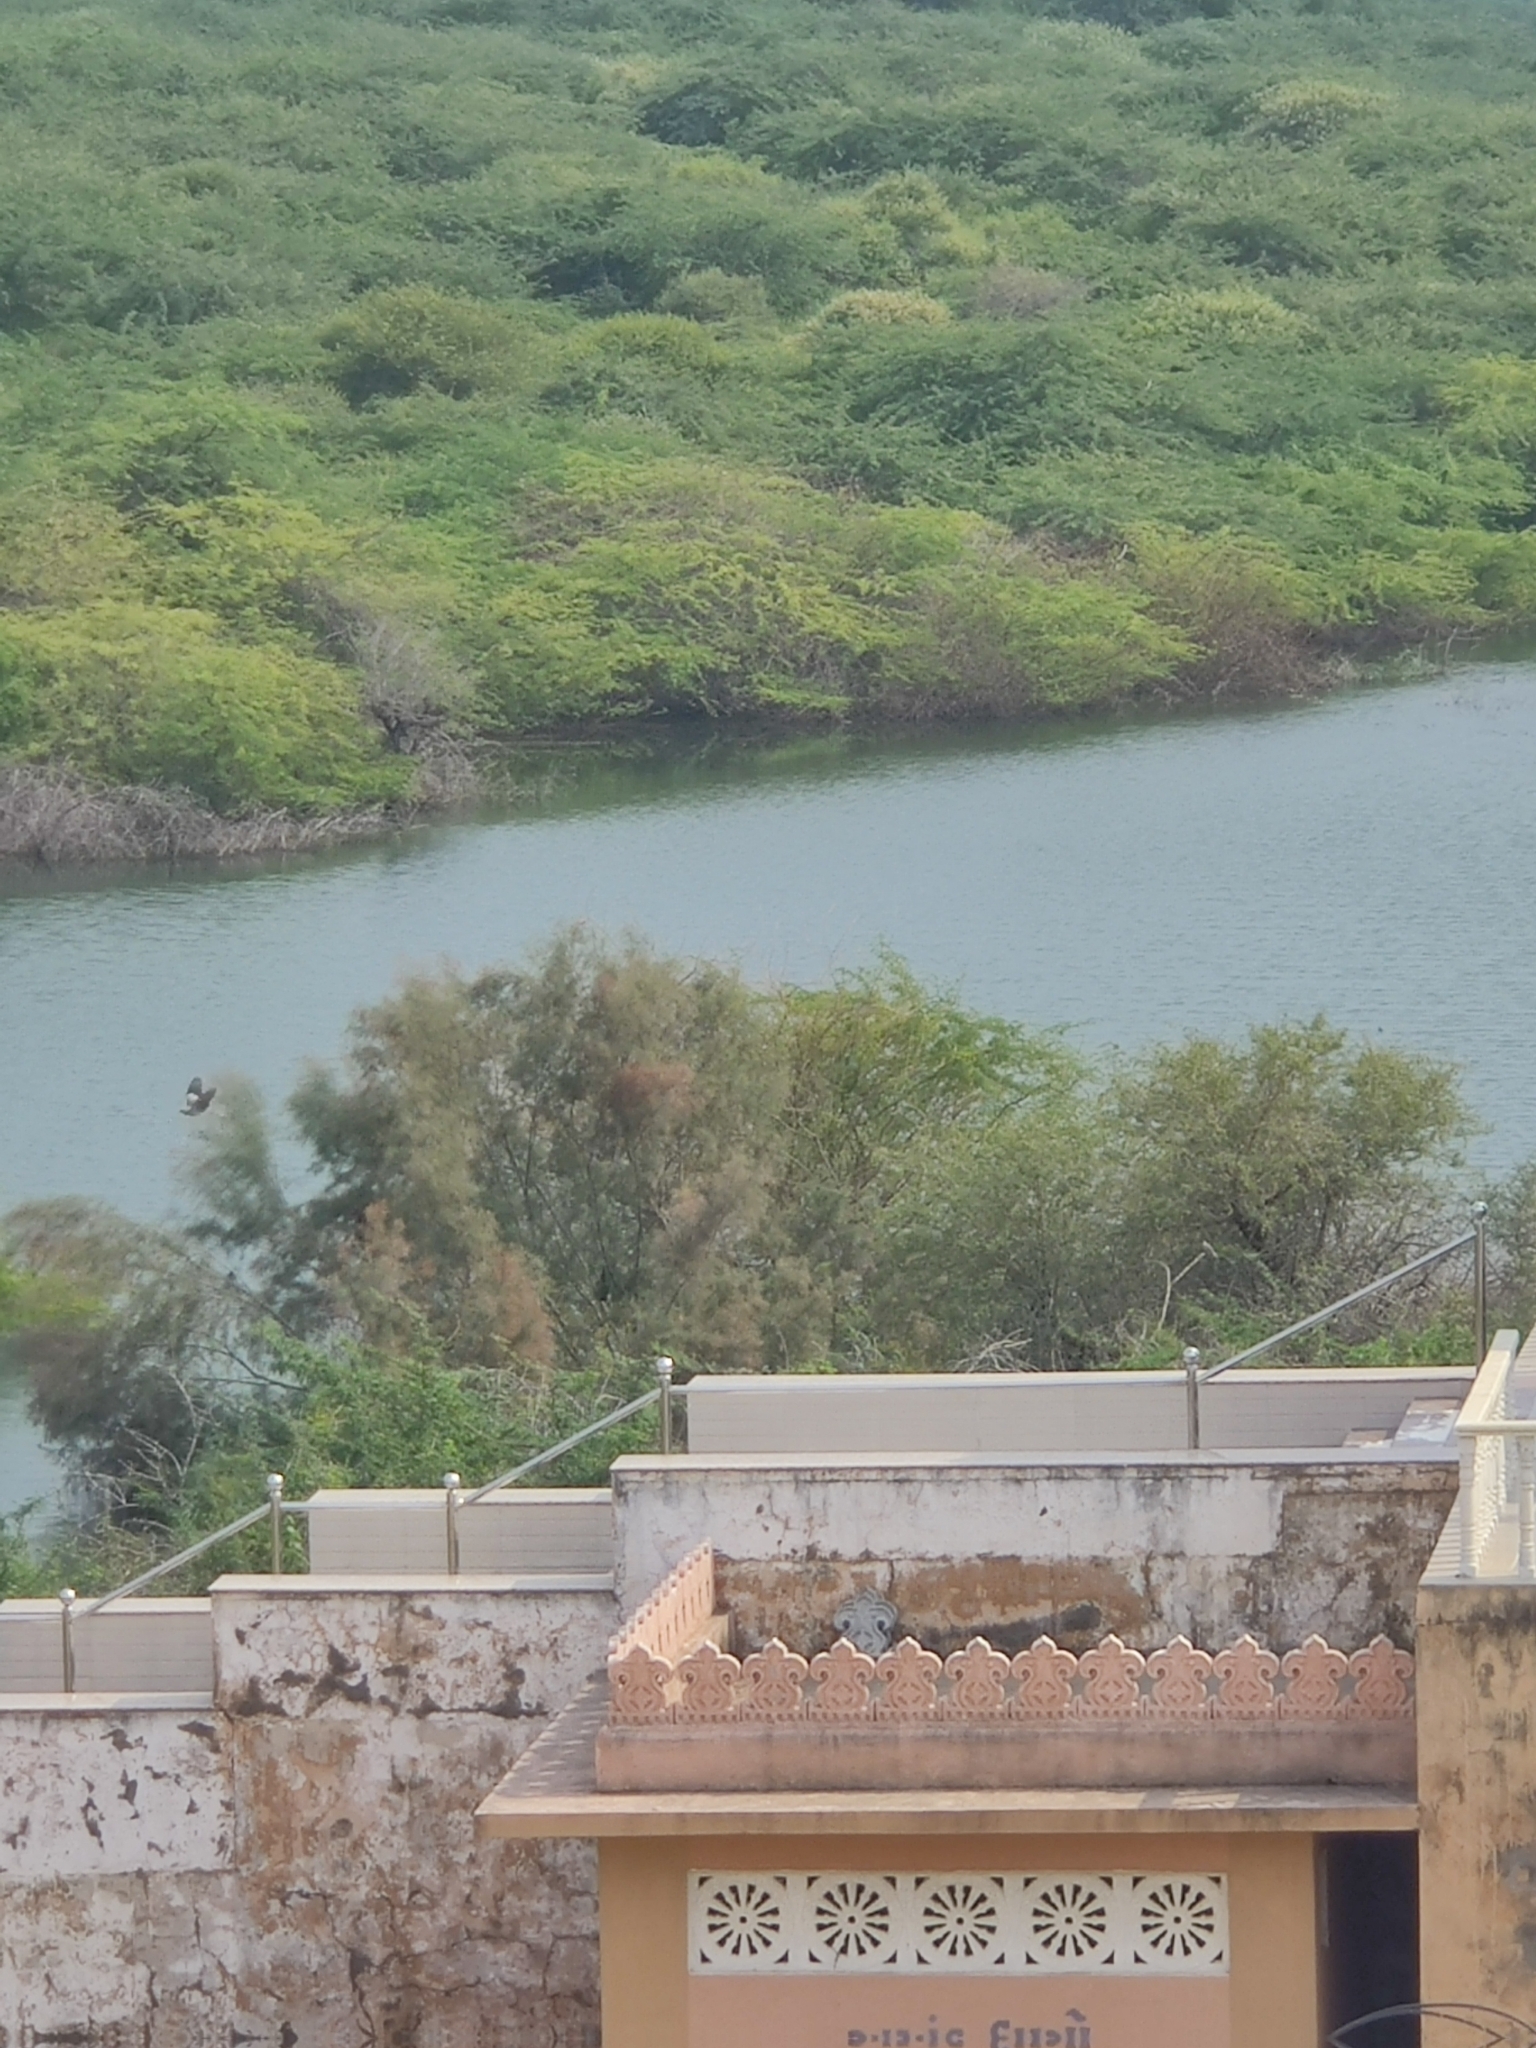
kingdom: Animalia
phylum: Chordata
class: Mammalia
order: Chiroptera
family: Pteropodidae
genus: Pteropus
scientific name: Pteropus vampyrus
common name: Large flying fox
